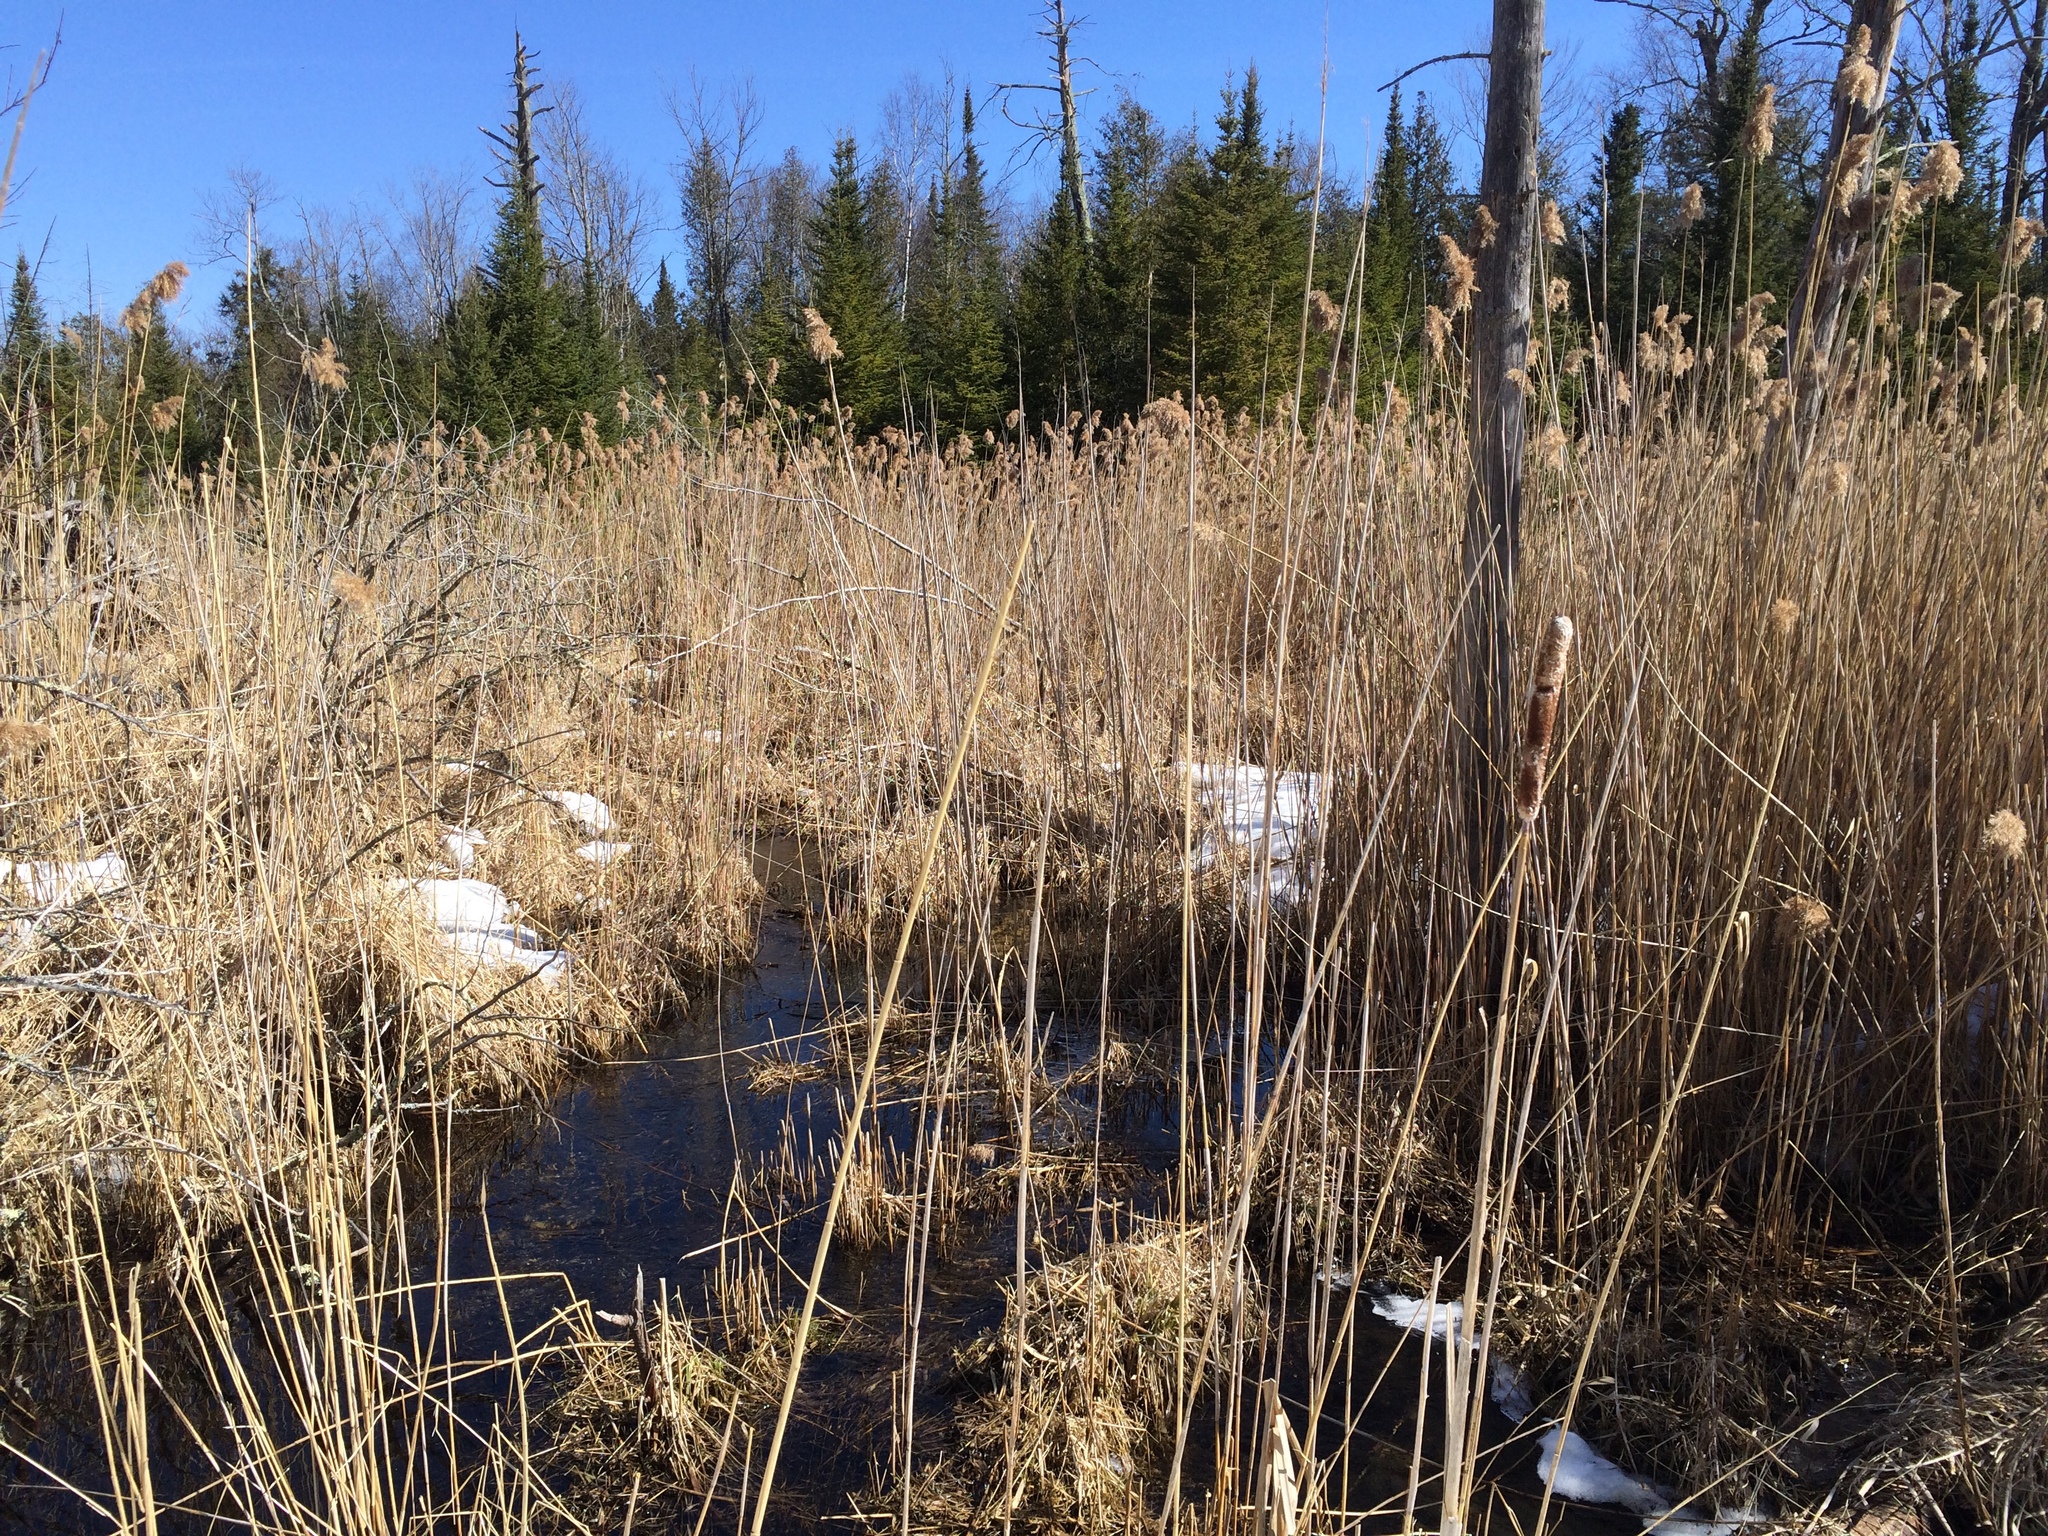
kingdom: Plantae
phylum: Tracheophyta
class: Liliopsida
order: Poales
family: Poaceae
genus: Phragmites
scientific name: Phragmites australis
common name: Common reed
